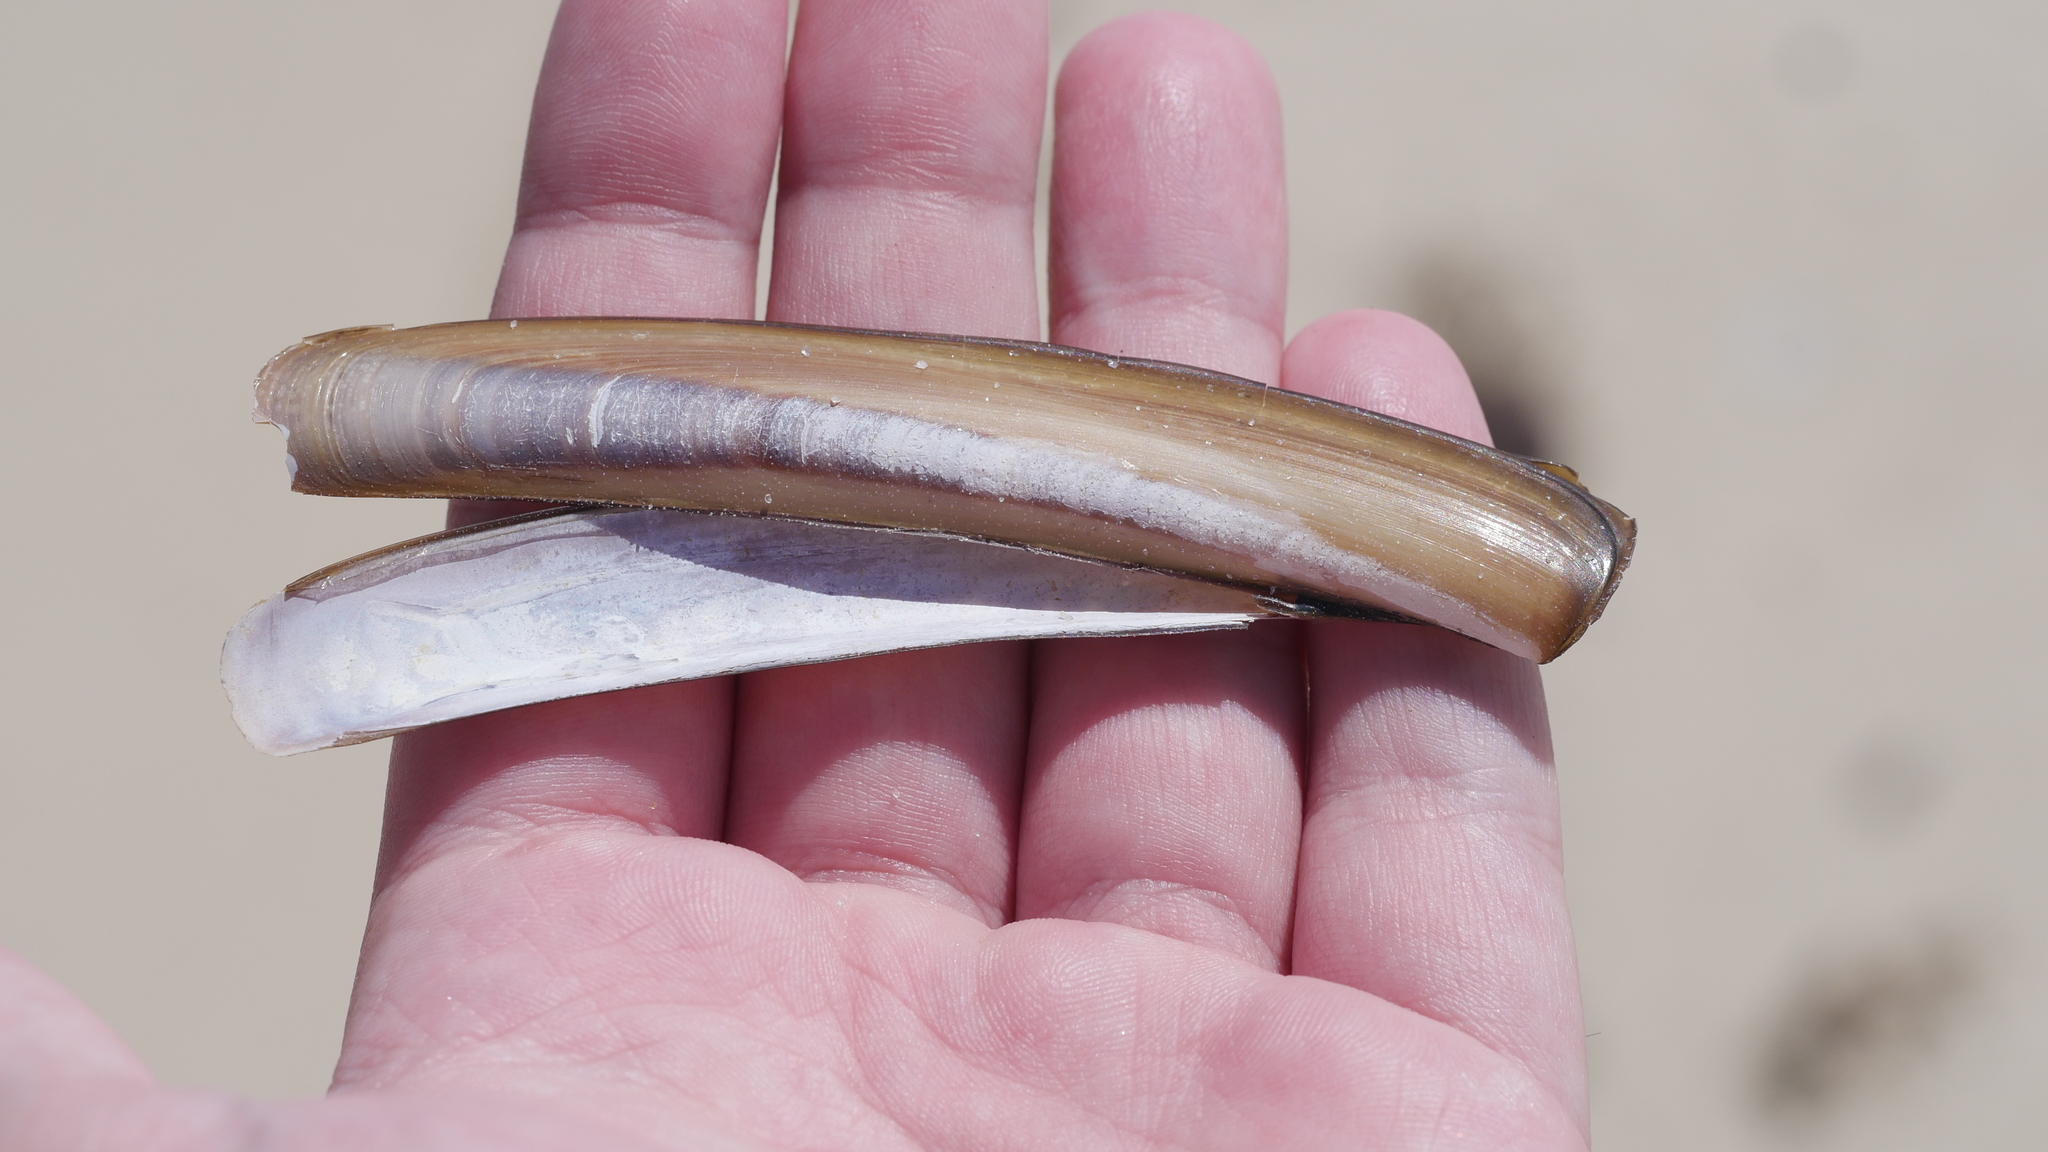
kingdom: Animalia
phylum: Mollusca
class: Bivalvia
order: Adapedonta
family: Pharidae
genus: Ensis
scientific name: Ensis leei
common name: American jack knife clam
